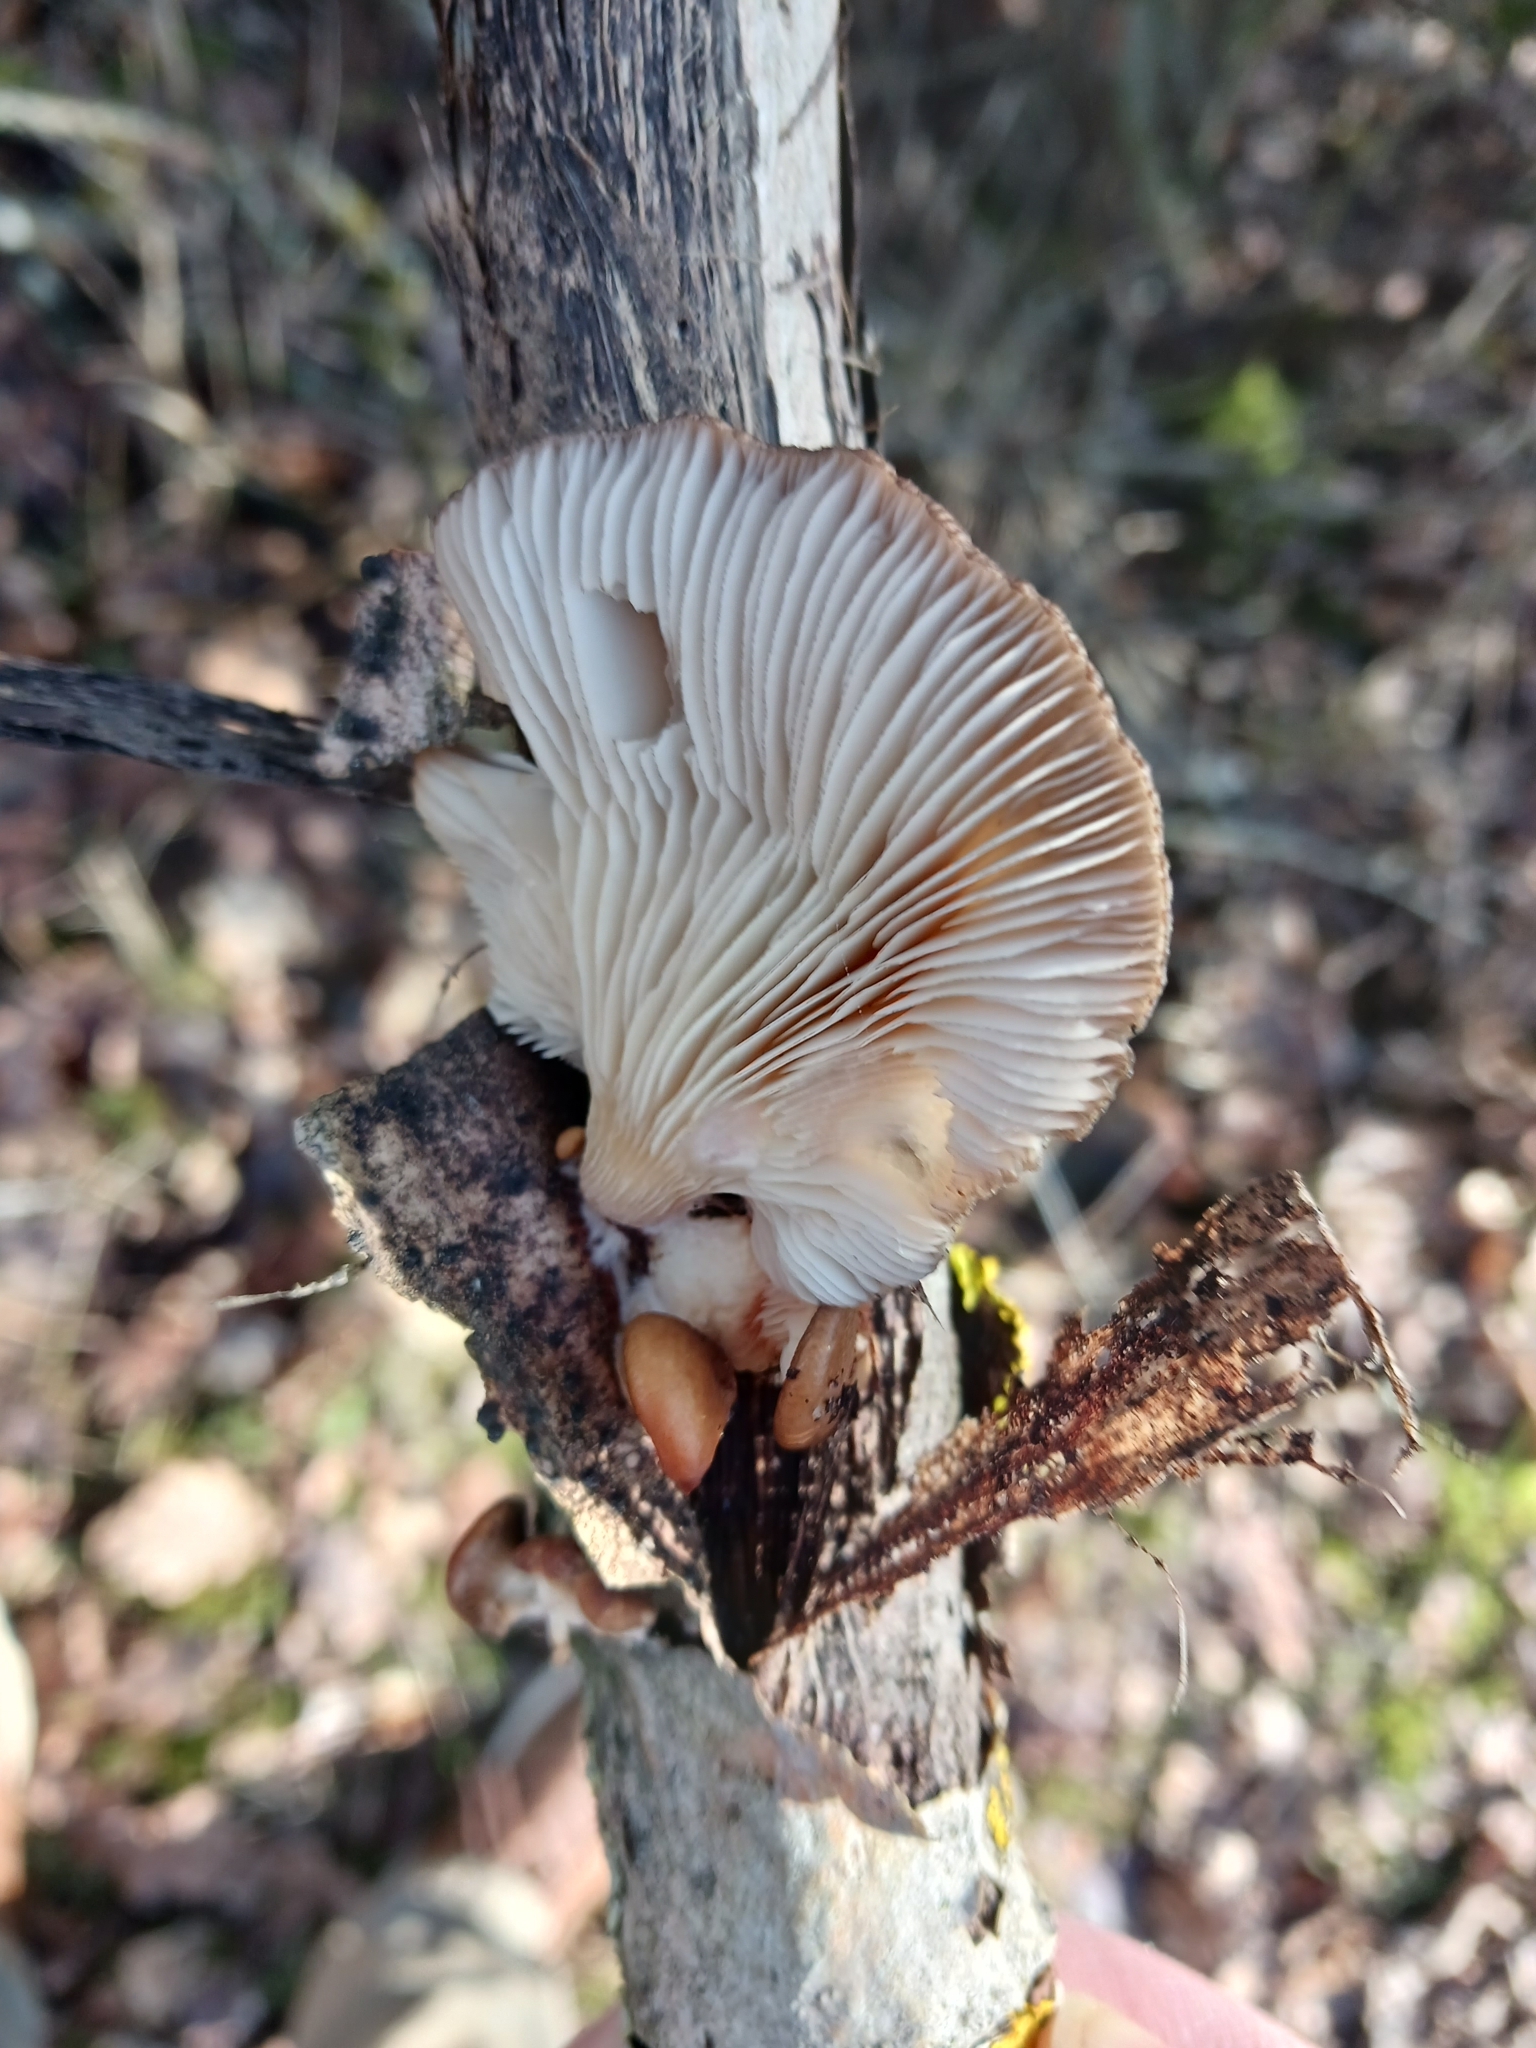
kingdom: Fungi
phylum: Basidiomycota
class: Agaricomycetes
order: Agaricales
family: Pleurotaceae
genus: Pleurotus
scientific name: Pleurotus ostreatus
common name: Oyster mushroom
